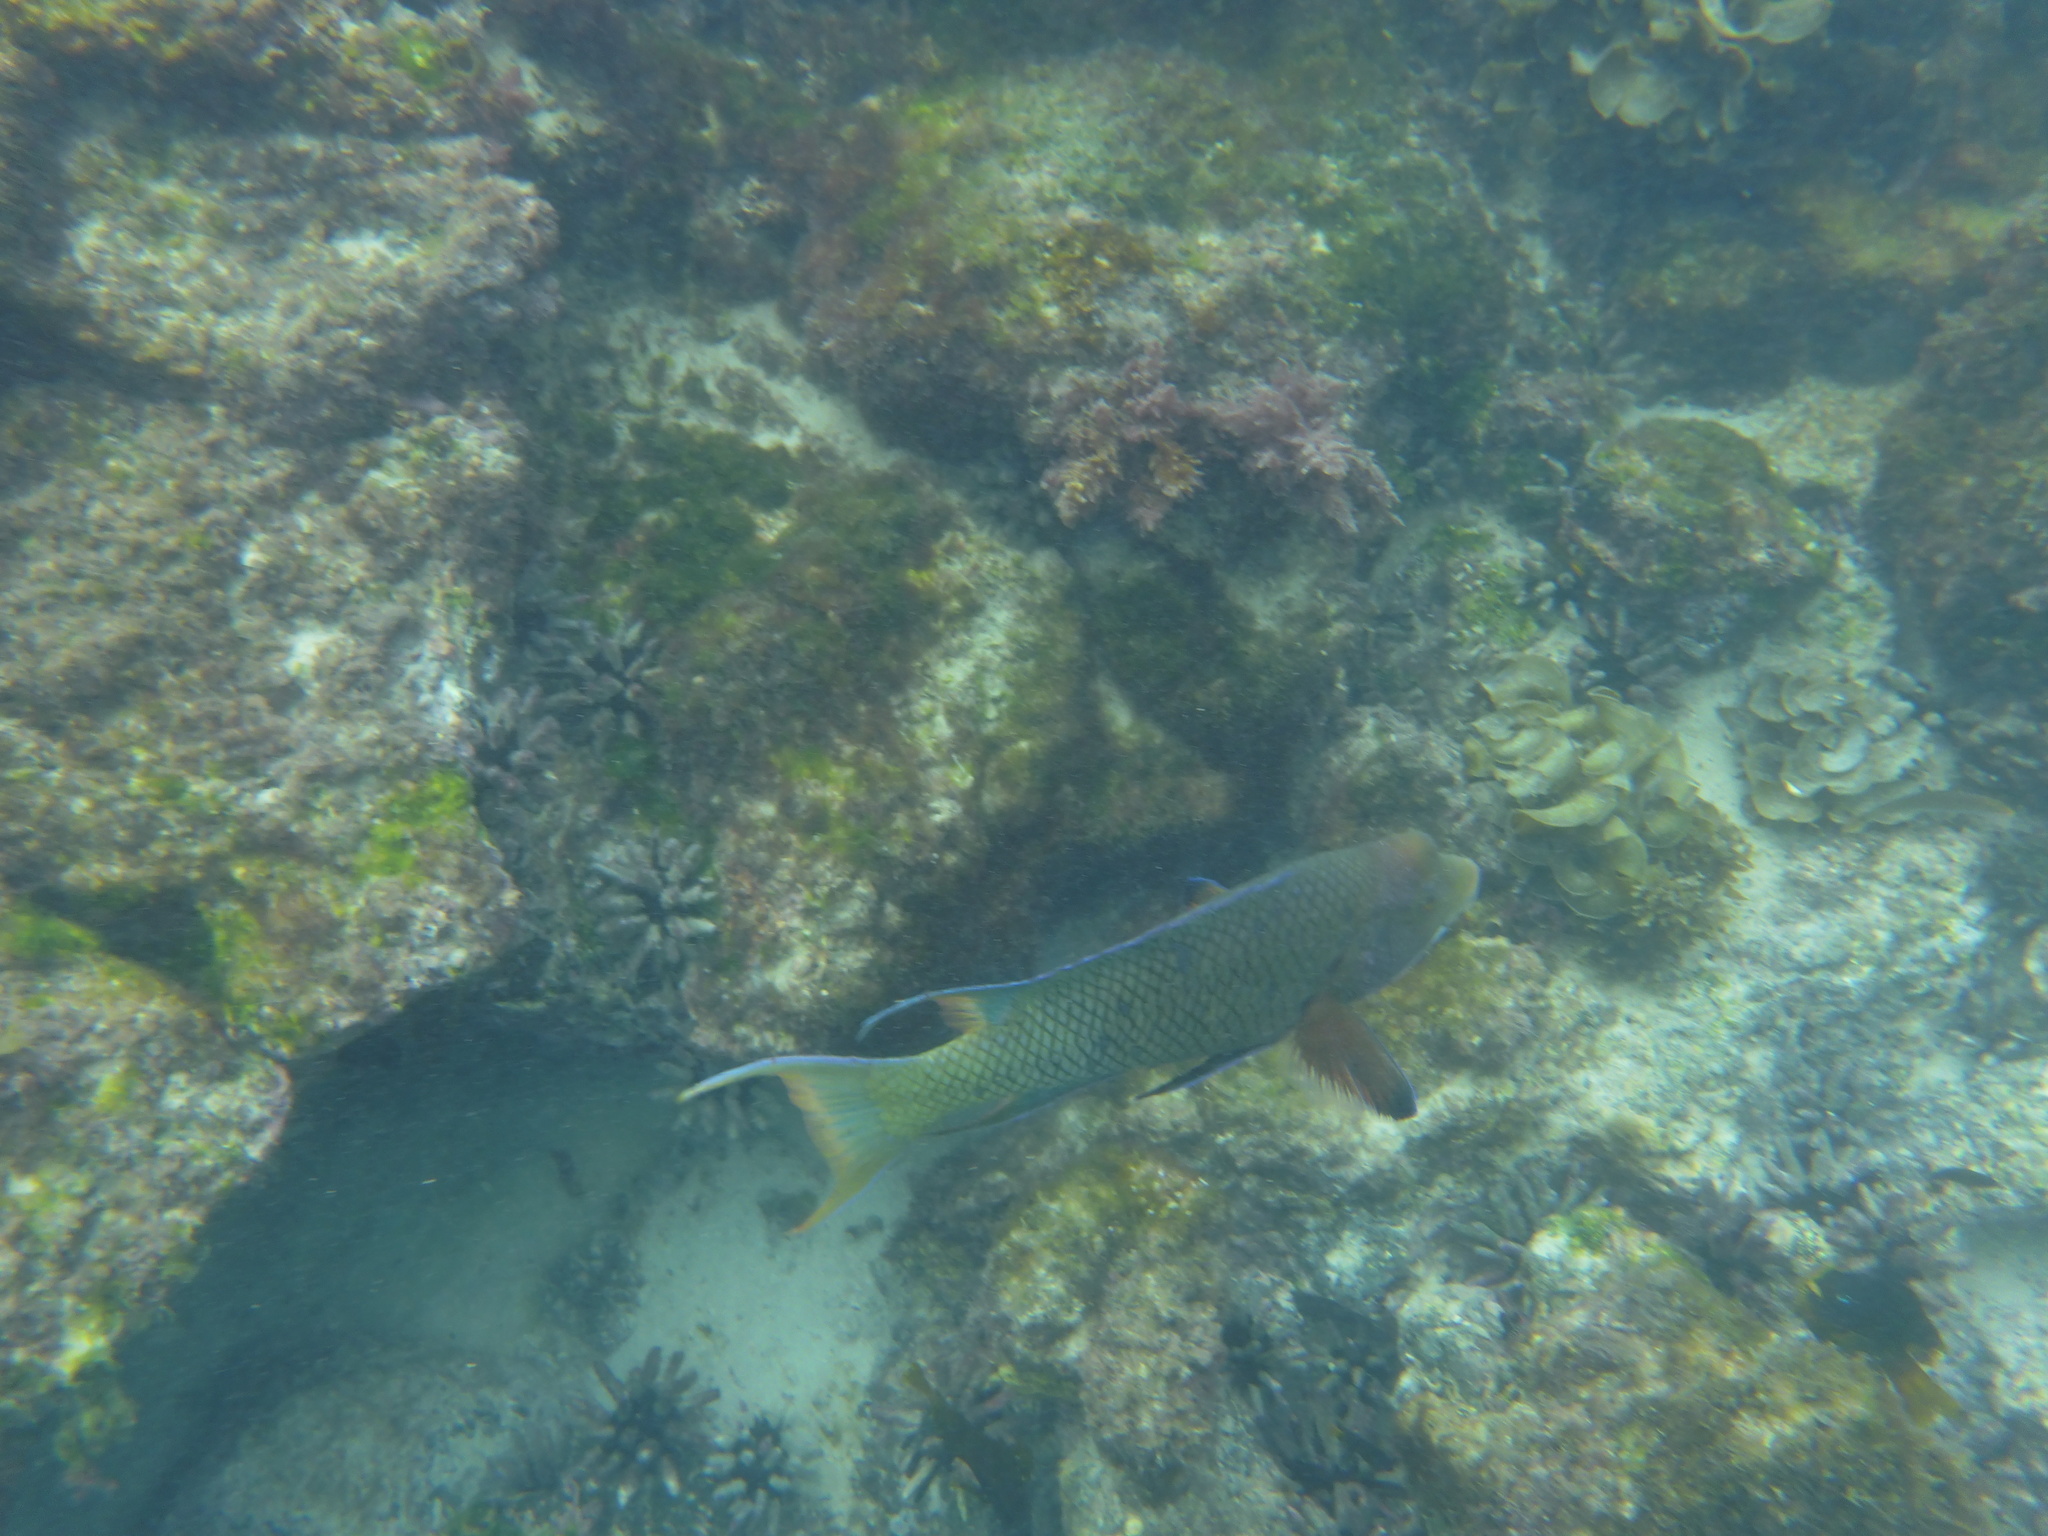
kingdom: Animalia
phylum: Chordata
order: Perciformes
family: Labridae
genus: Bodianus
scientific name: Bodianus diplotaenia
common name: Mexican hogfish
